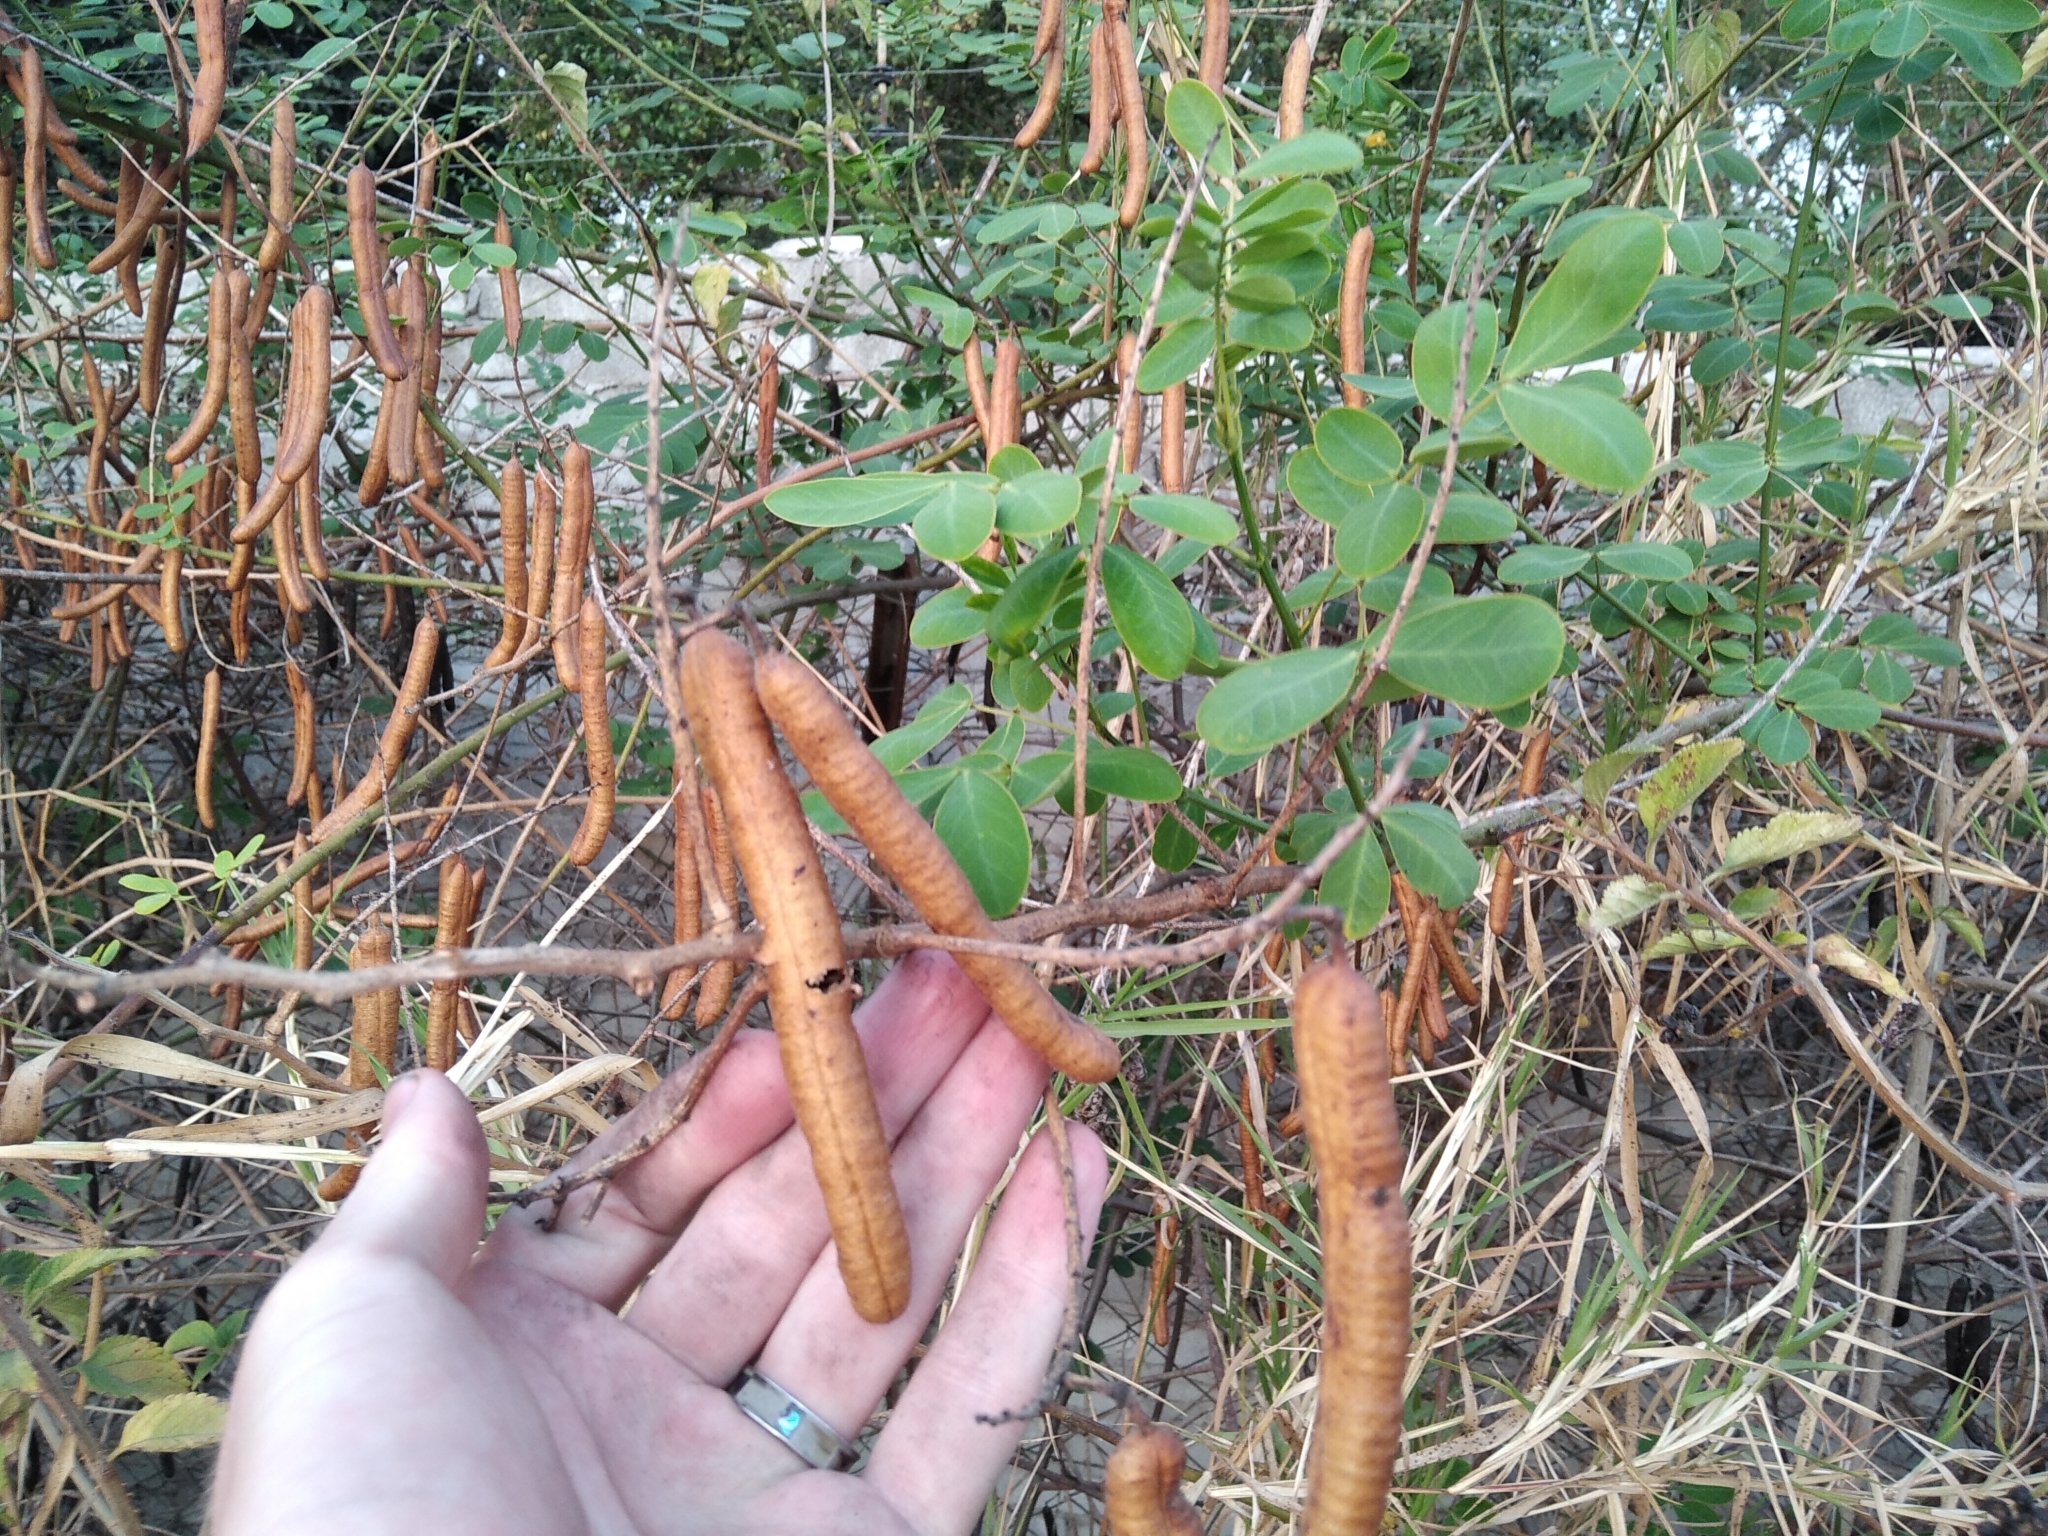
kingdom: Plantae
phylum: Tracheophyta
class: Magnoliopsida
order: Fabales
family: Fabaceae
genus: Senna
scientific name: Senna singueana
